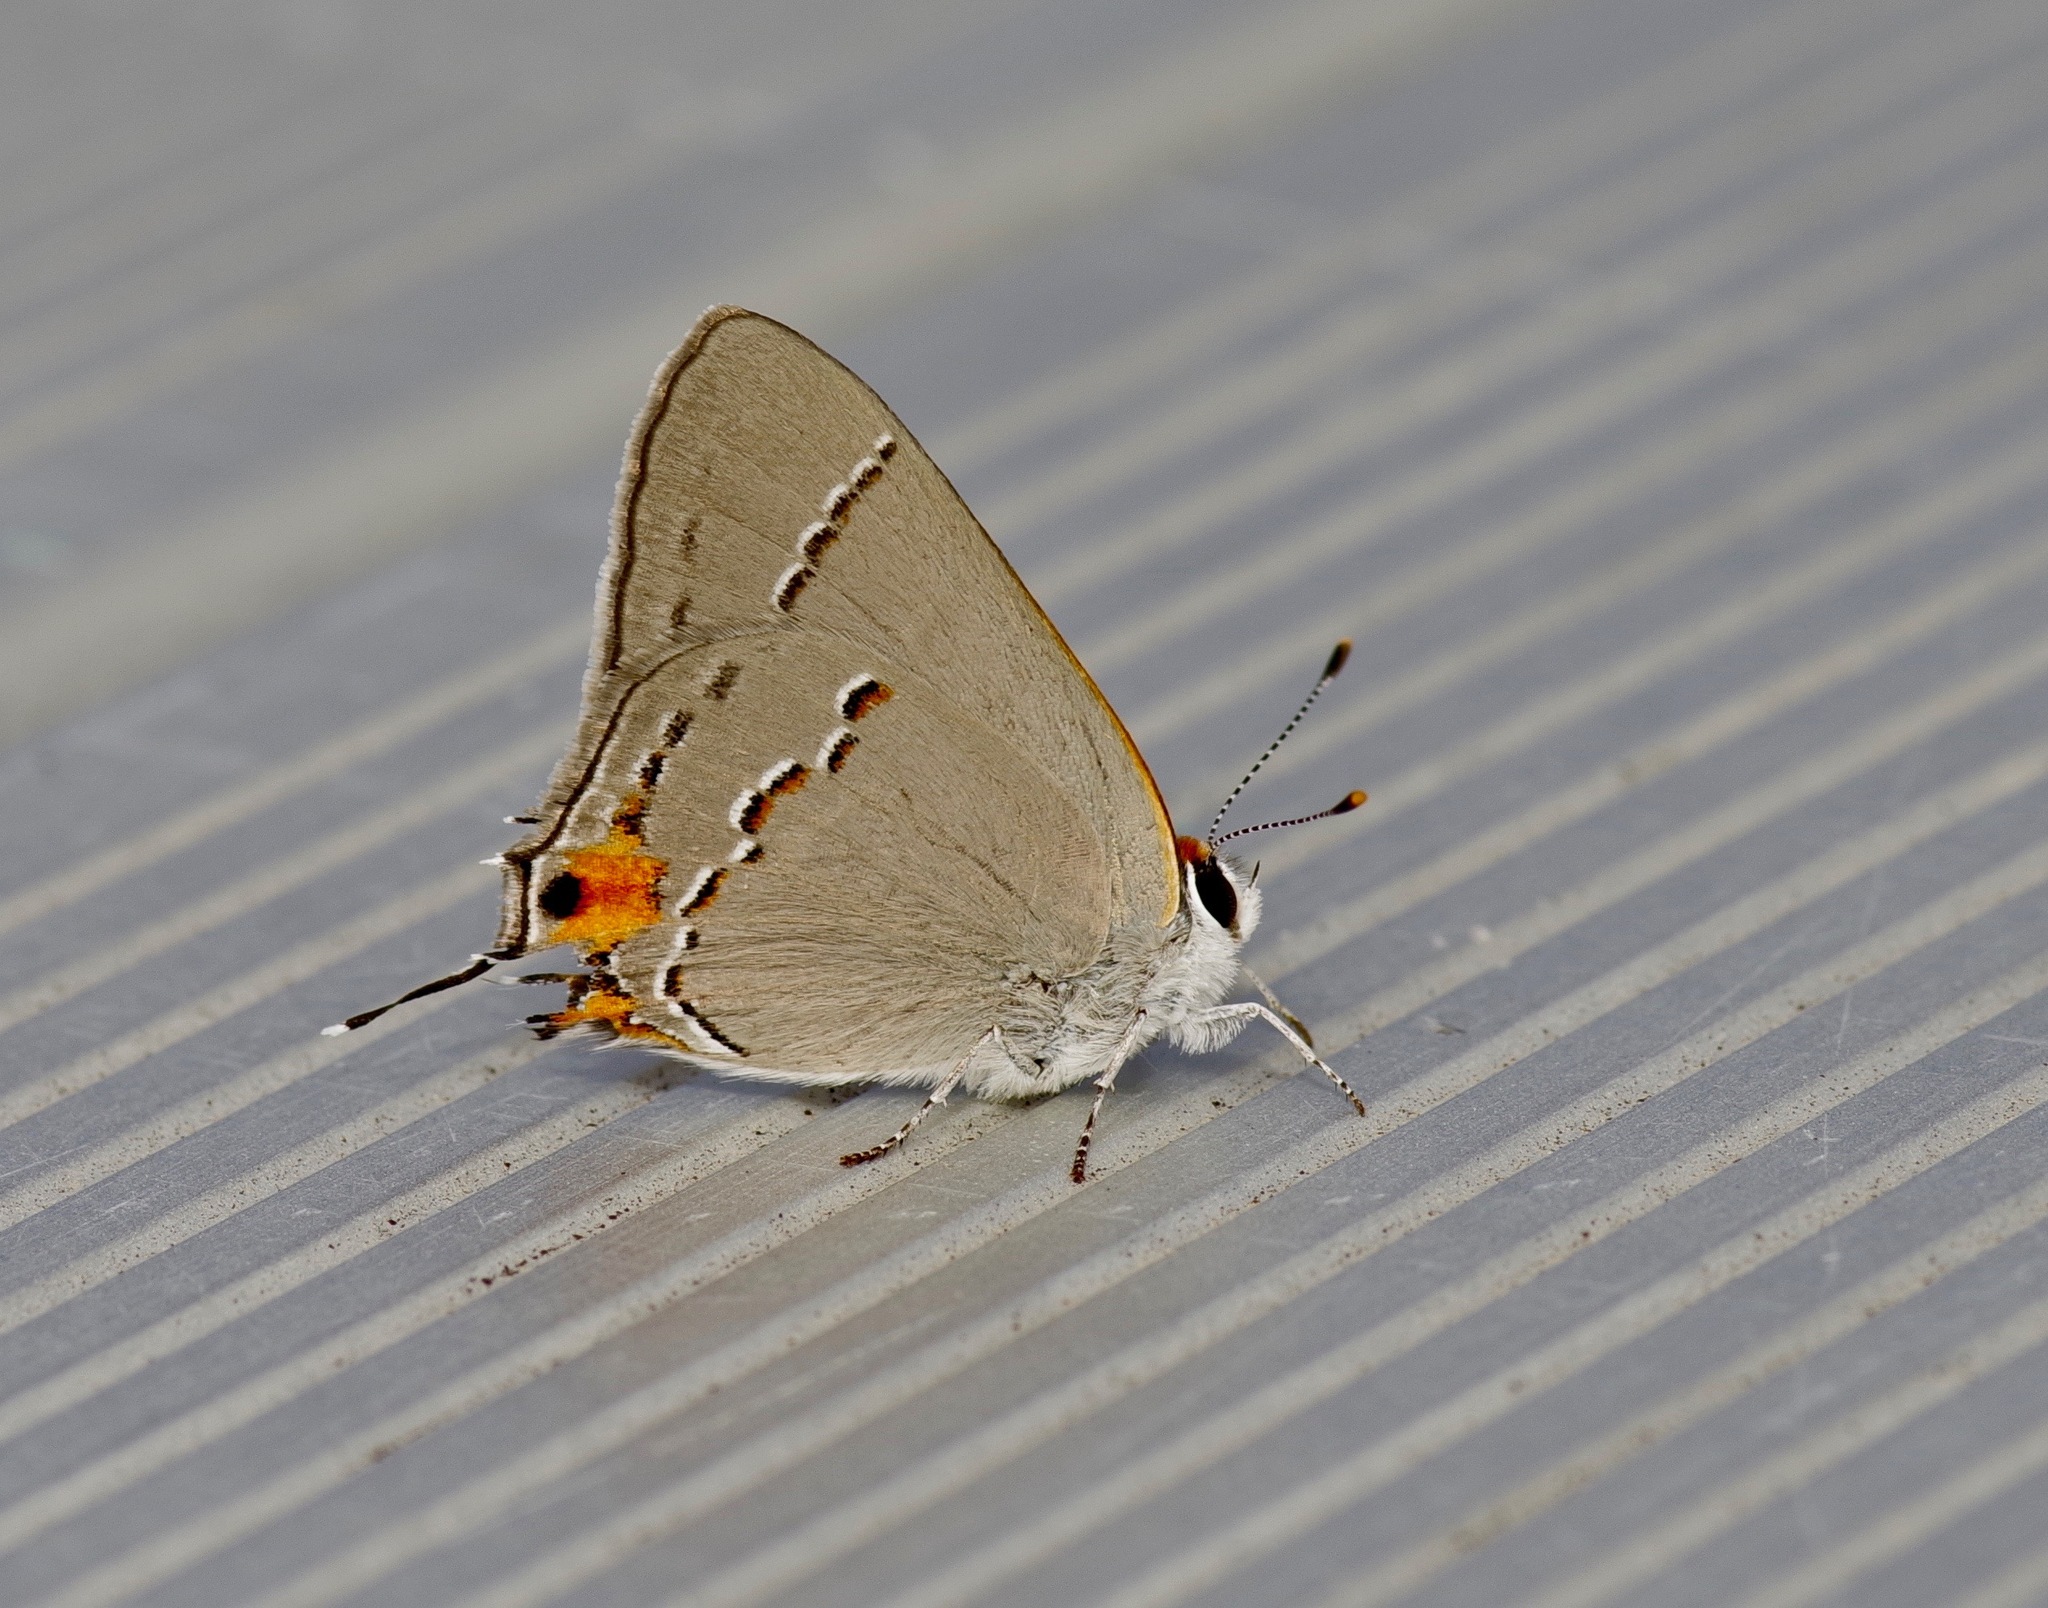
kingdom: Animalia
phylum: Arthropoda
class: Insecta
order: Lepidoptera
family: Lycaenidae
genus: Strymon
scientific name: Strymon melinus
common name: Gray hairstreak
